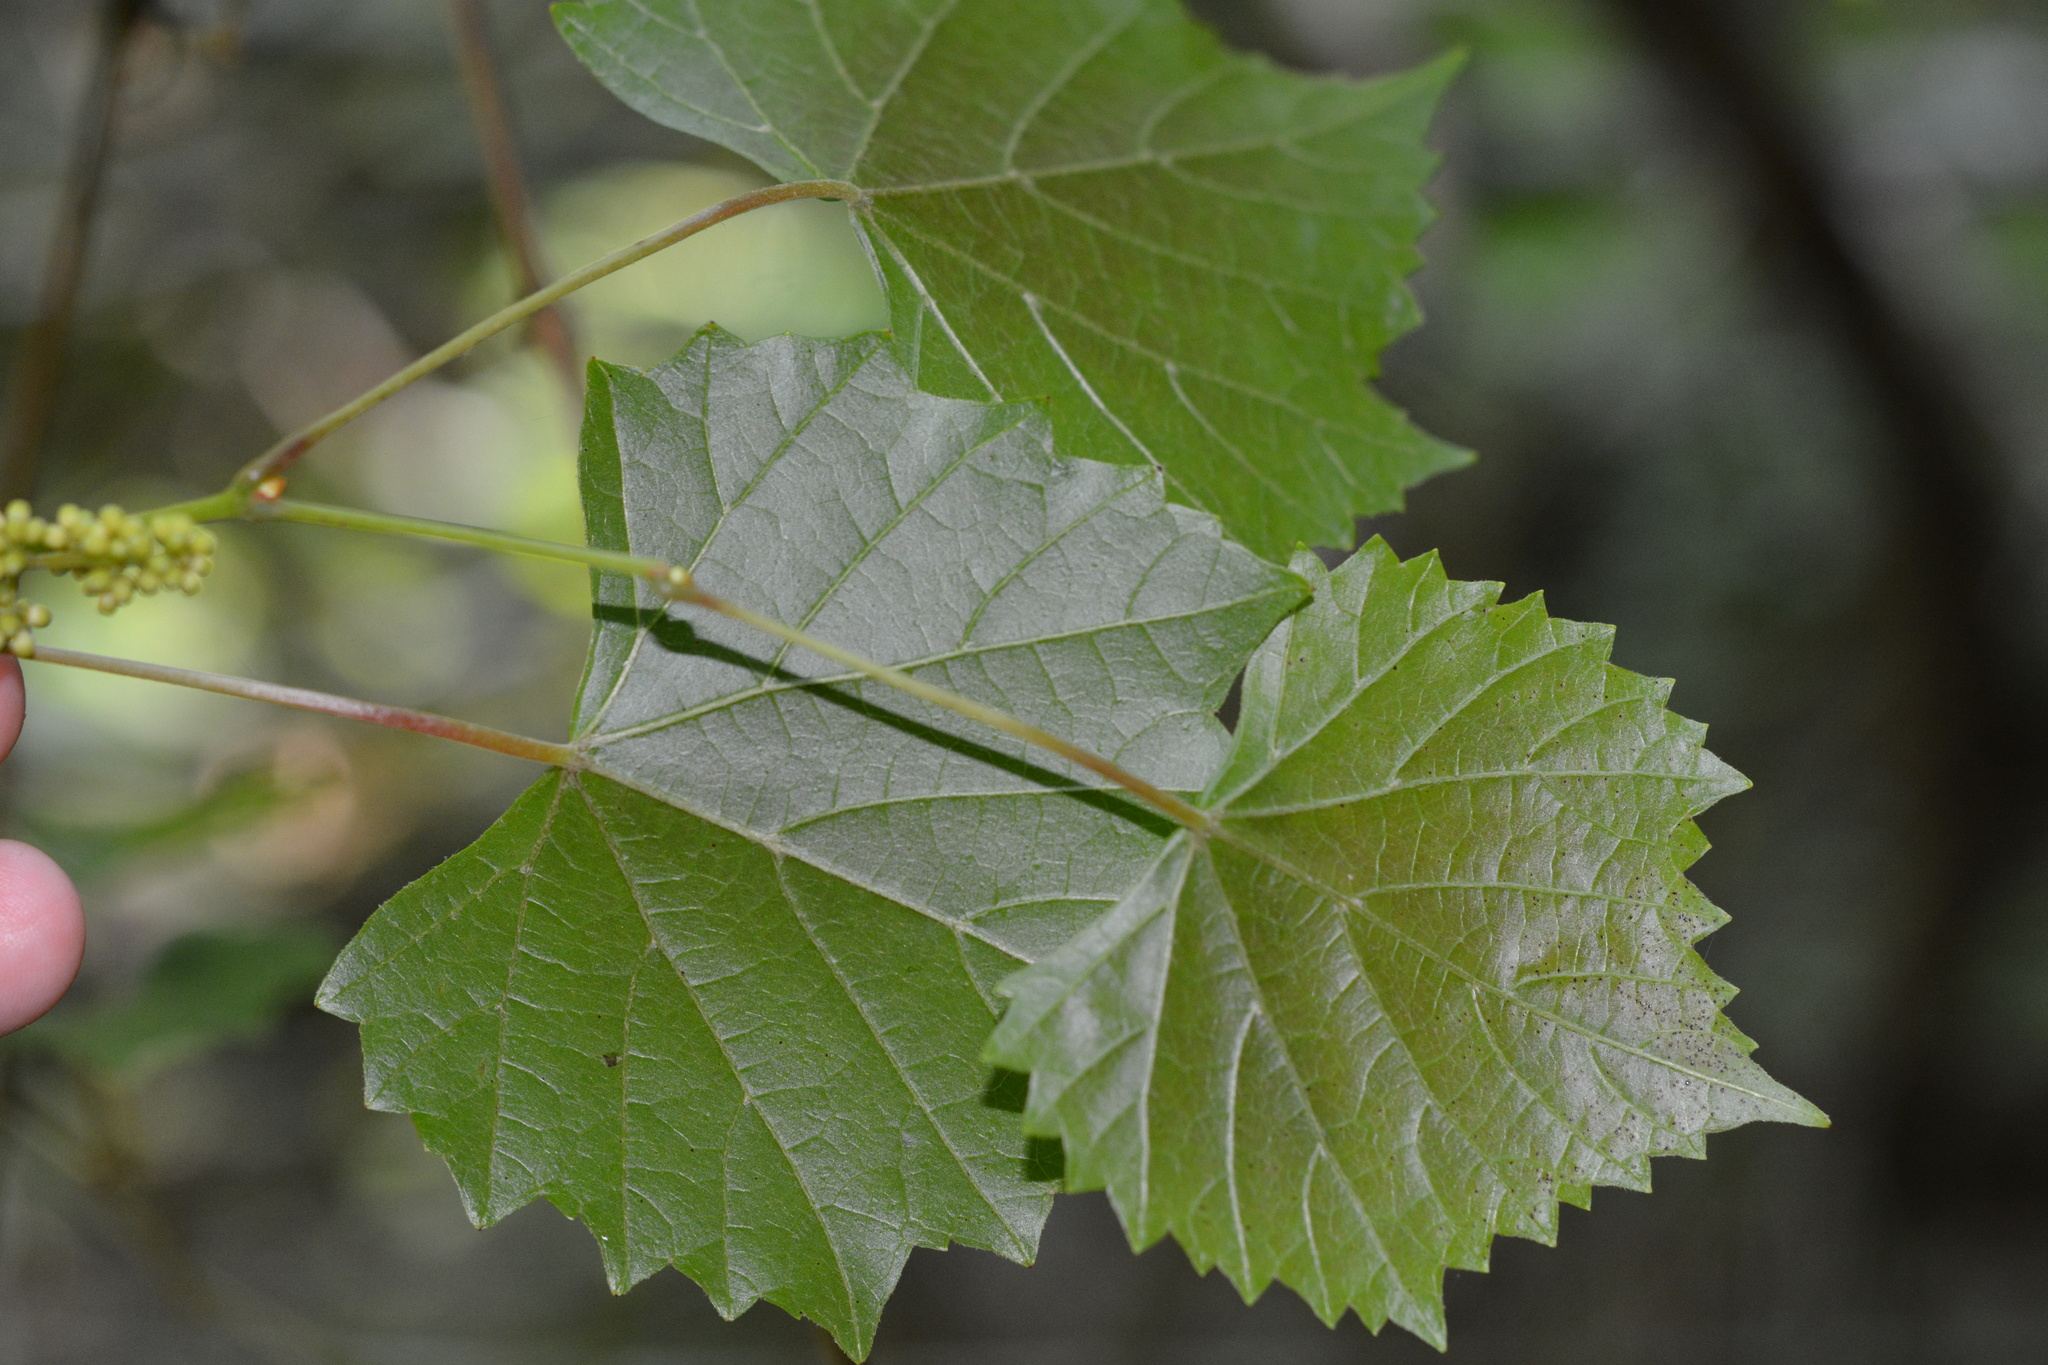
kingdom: Plantae
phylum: Tracheophyta
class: Magnoliopsida
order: Vitales
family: Vitaceae
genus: Vitis
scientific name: Vitis rotundifolia
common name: Muscadine grape
